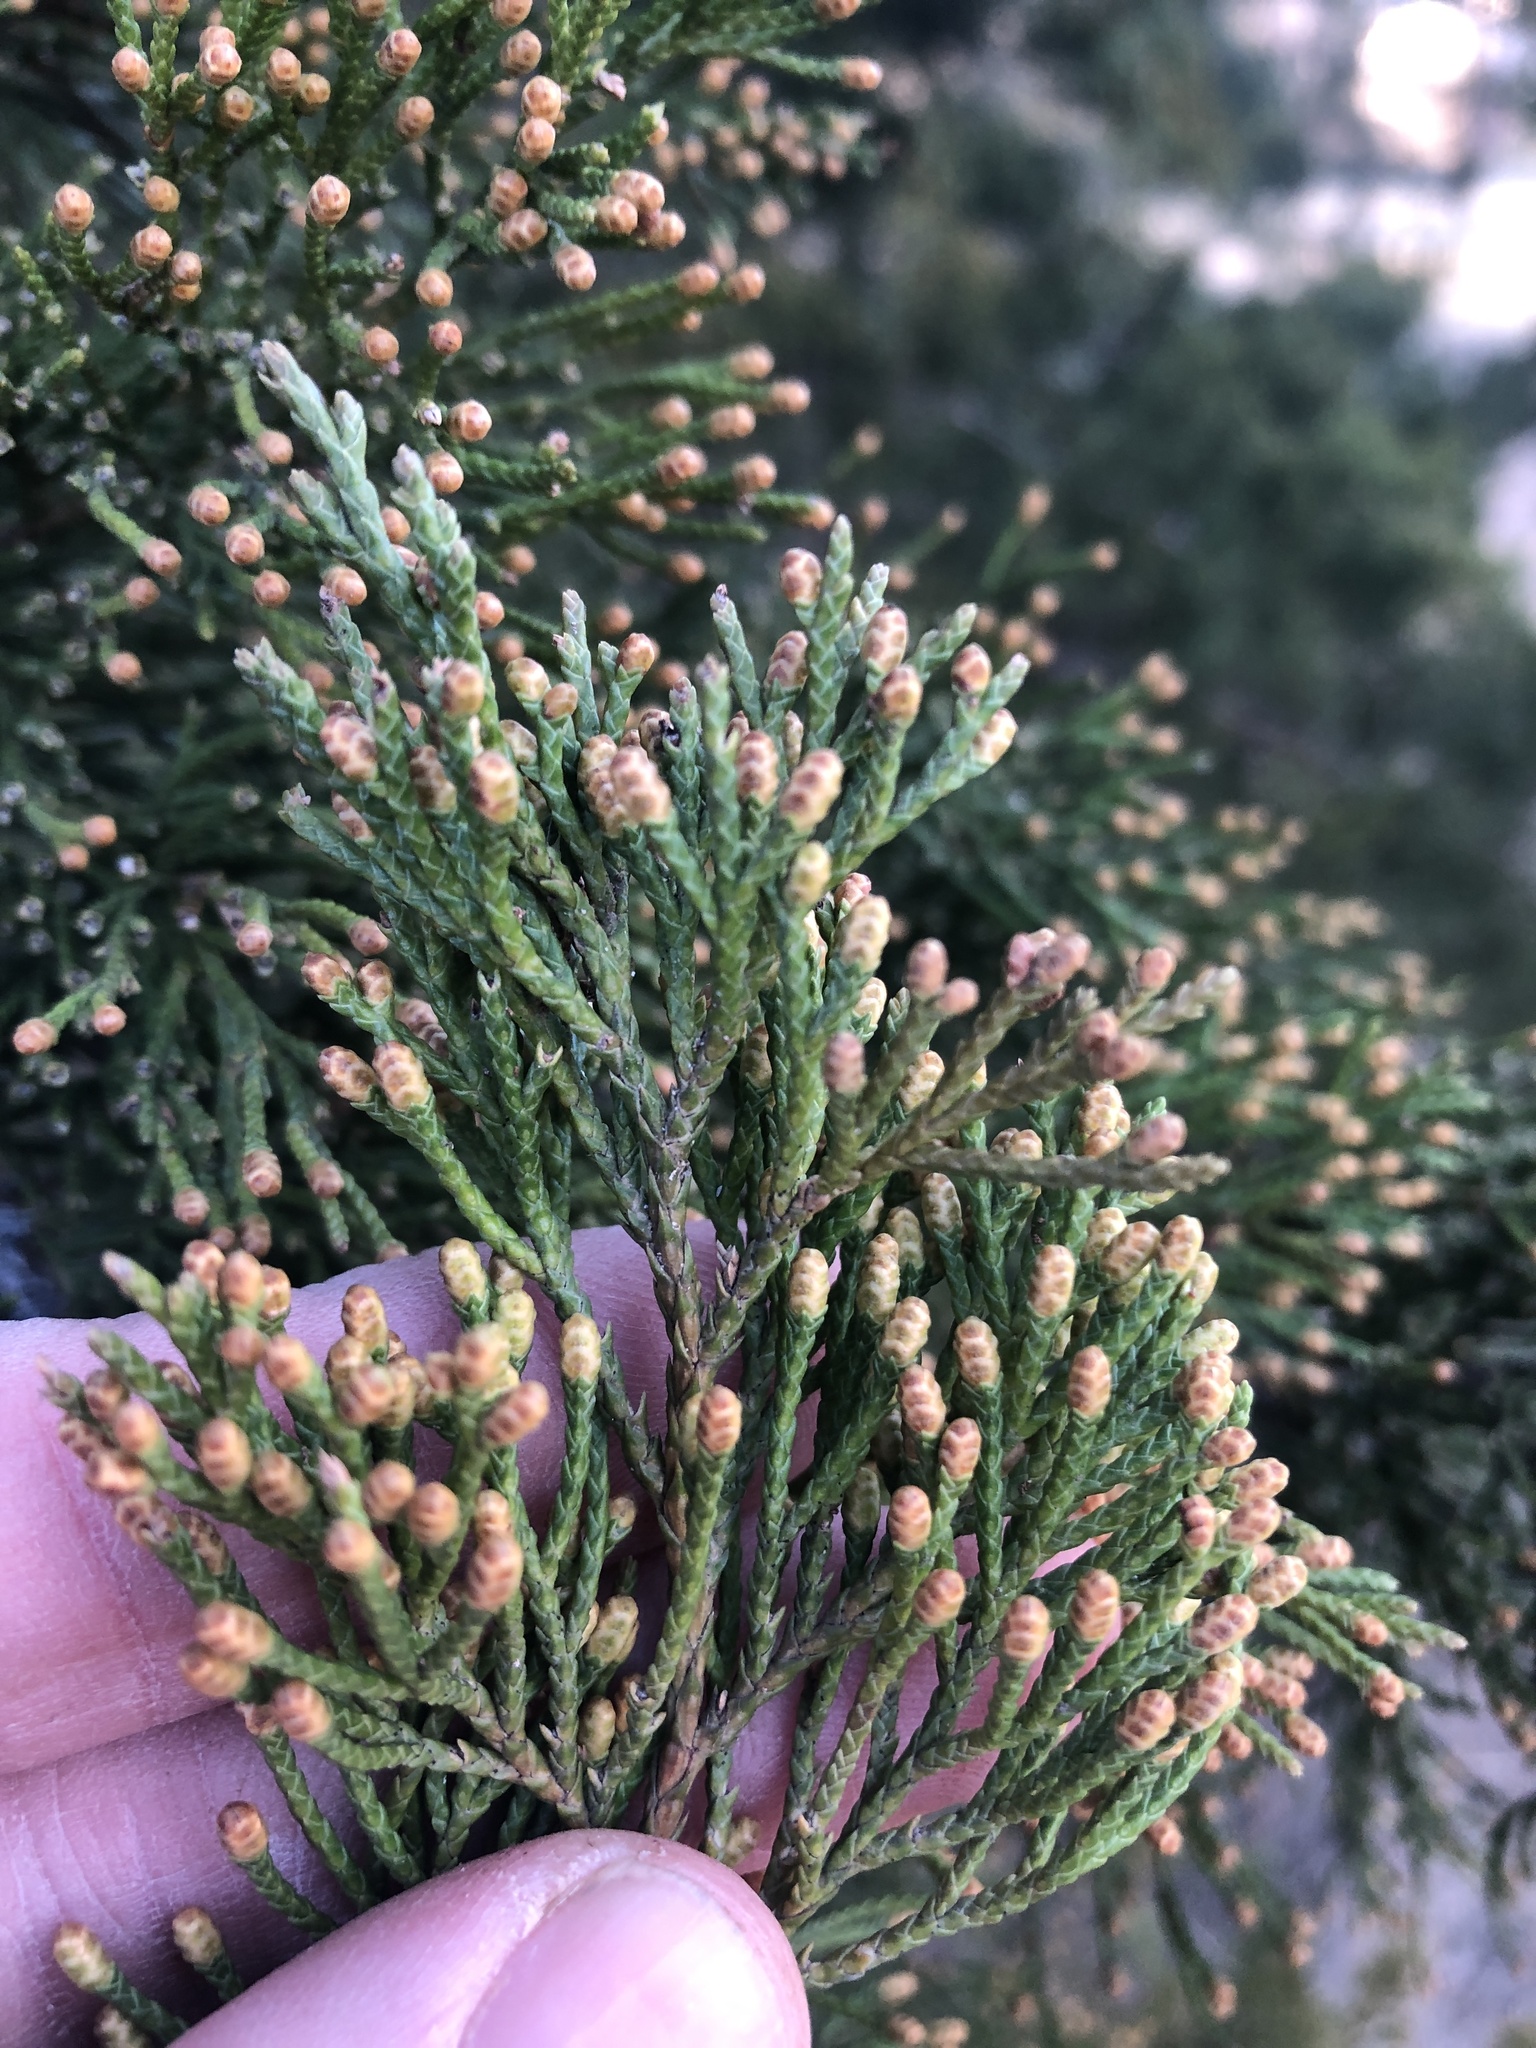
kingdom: Plantae
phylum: Tracheophyta
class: Pinopsida
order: Pinales
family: Cupressaceae
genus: Juniperus
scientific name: Juniperus virginiana
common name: Red juniper
